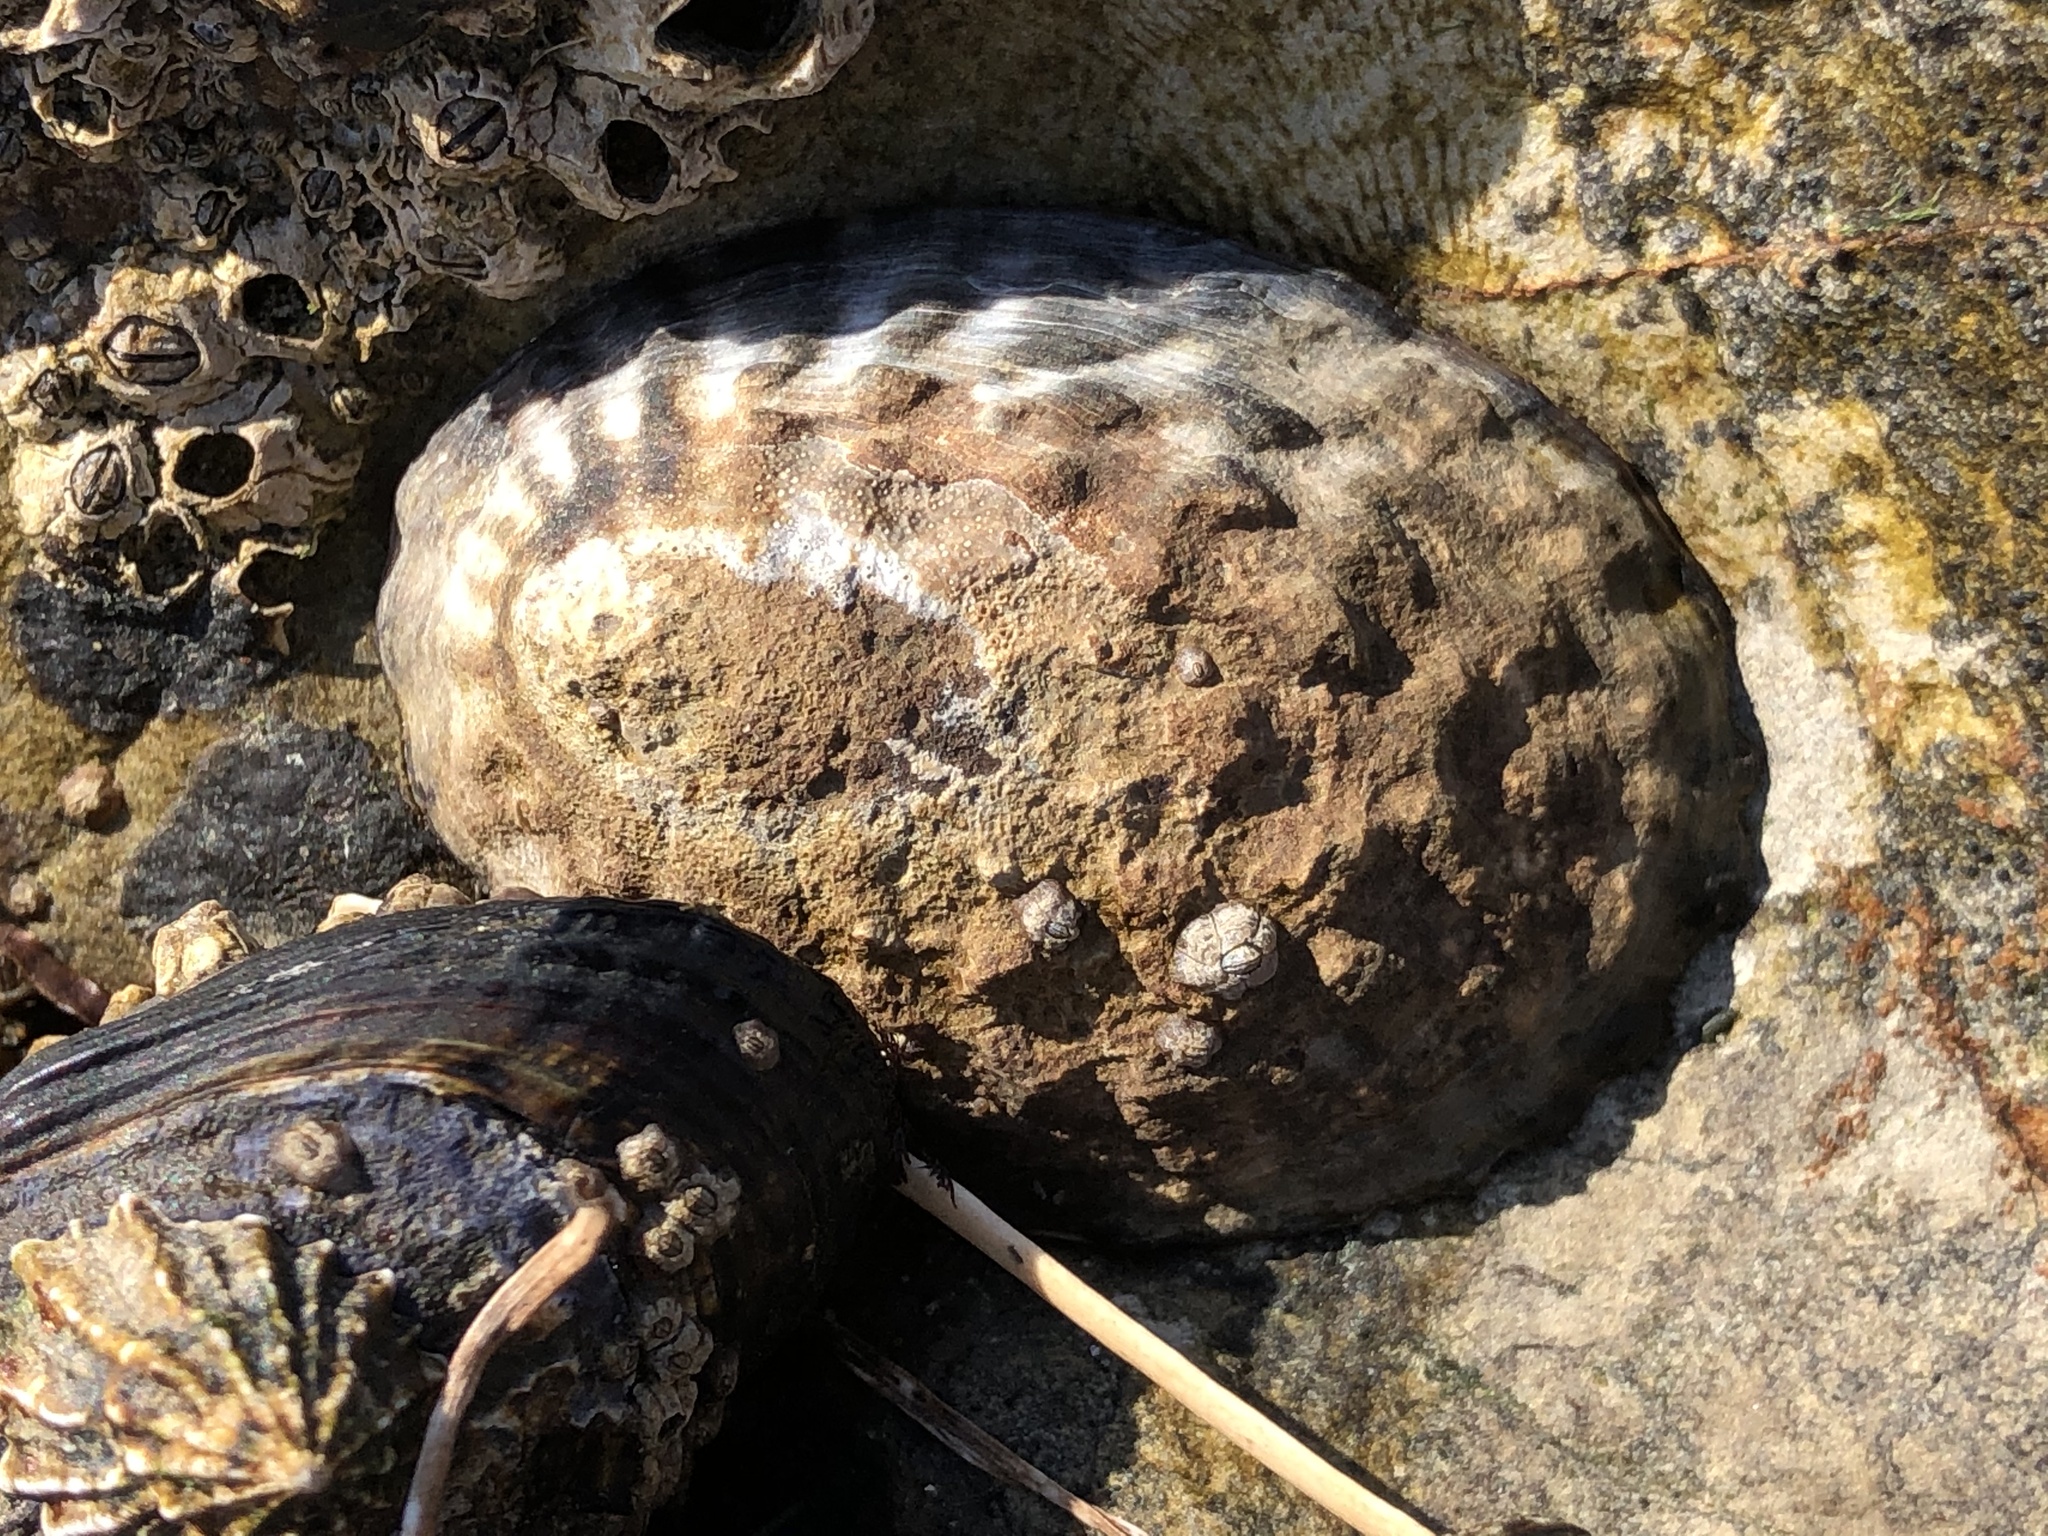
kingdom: Animalia
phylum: Mollusca
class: Gastropoda
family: Lottiidae
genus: Lottia
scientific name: Lottia gigantea
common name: Owl limpet
